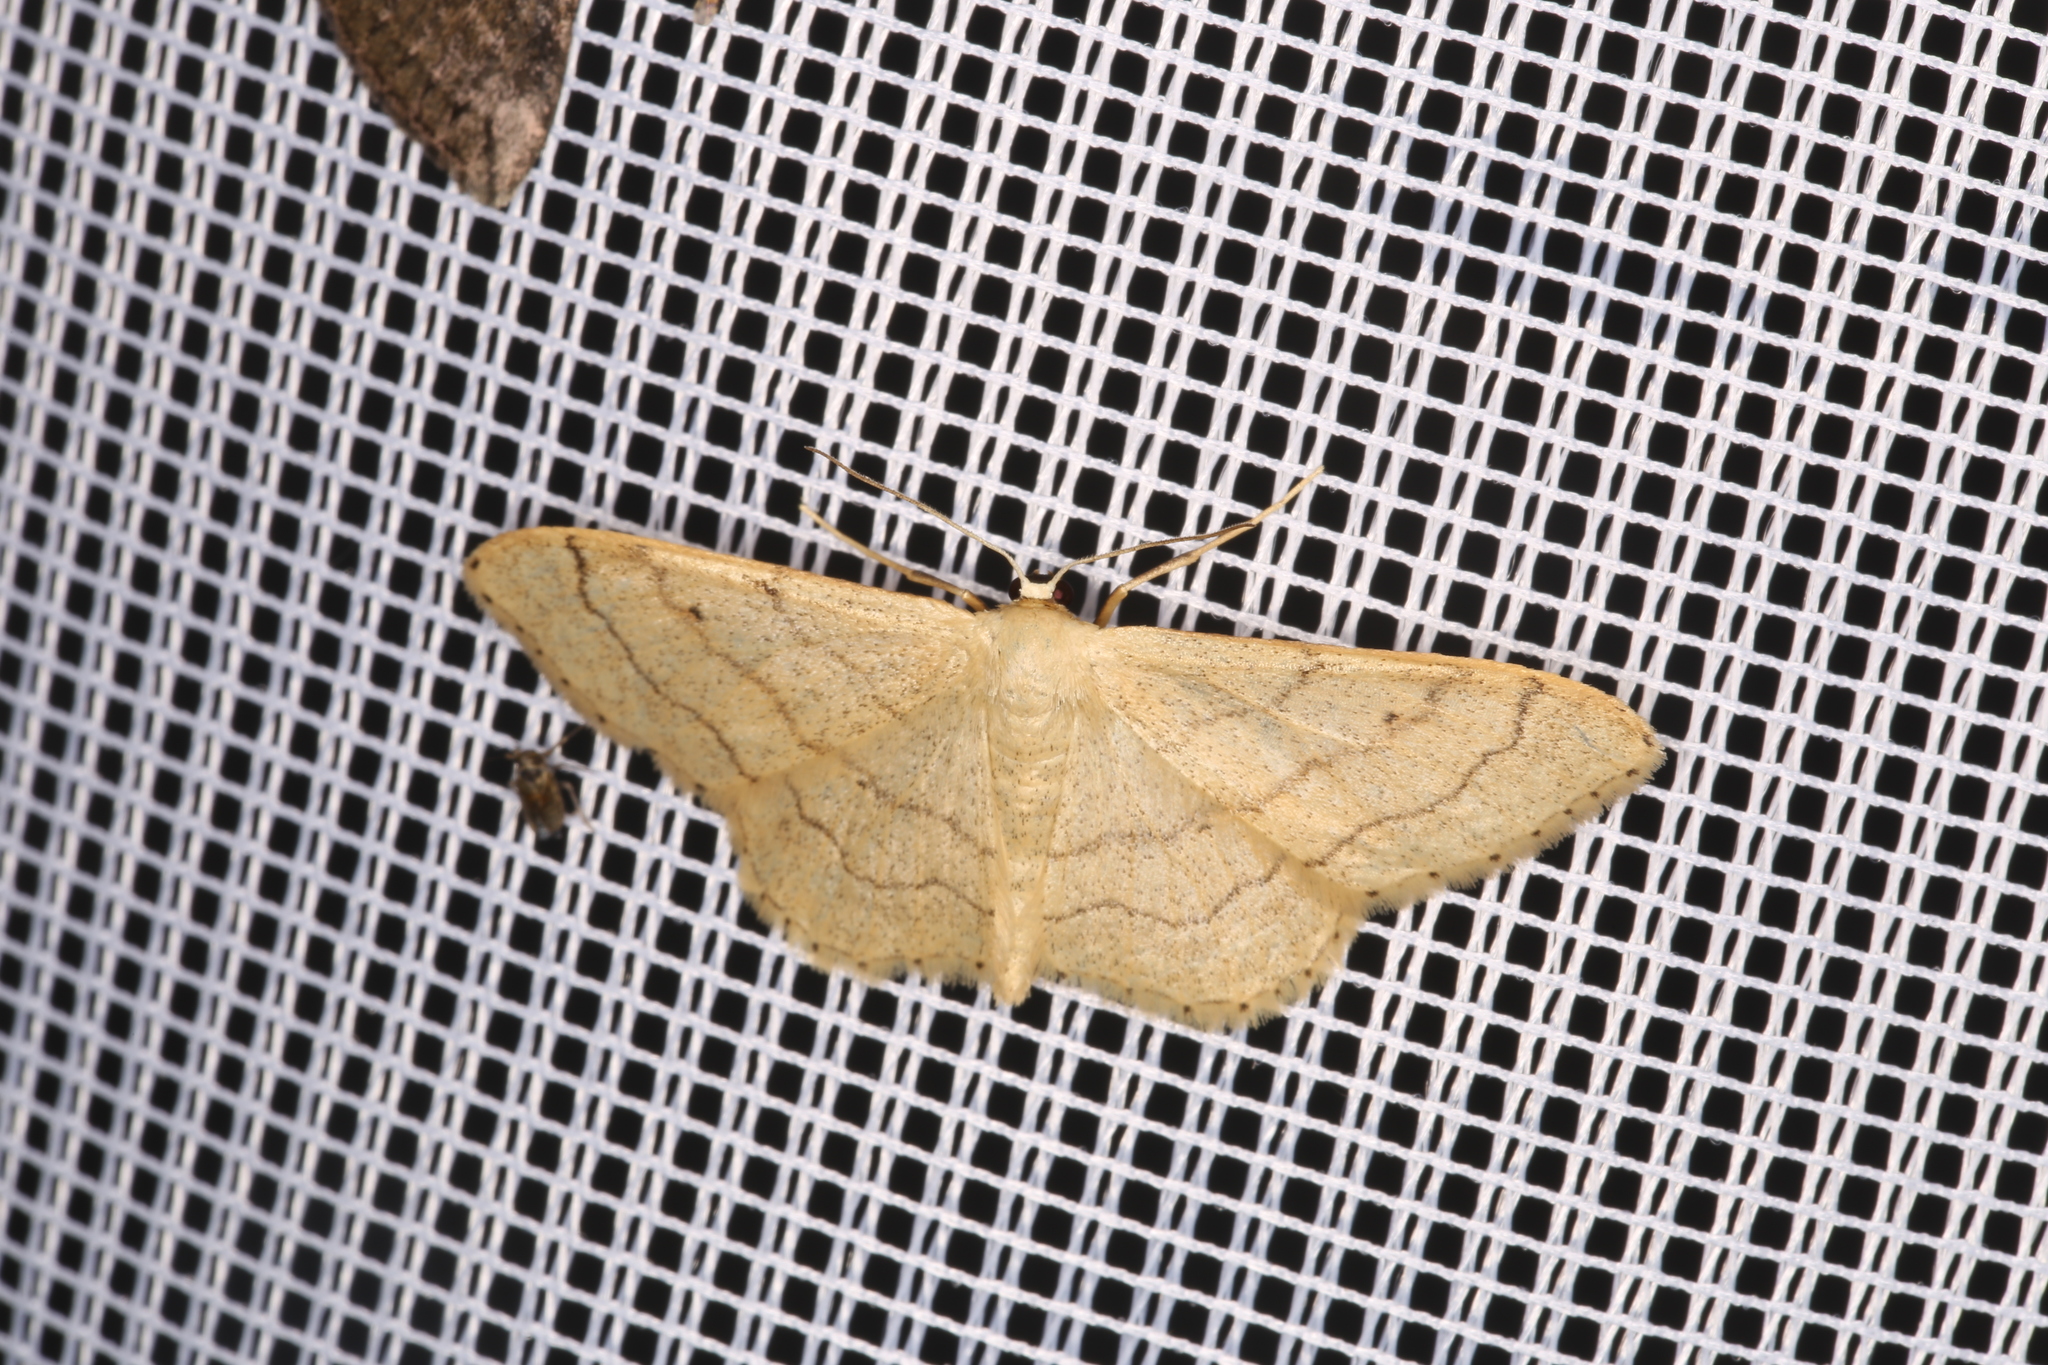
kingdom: Animalia
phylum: Arthropoda
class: Insecta
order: Lepidoptera
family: Geometridae
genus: Idaea
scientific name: Idaea aversata
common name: Riband wave
